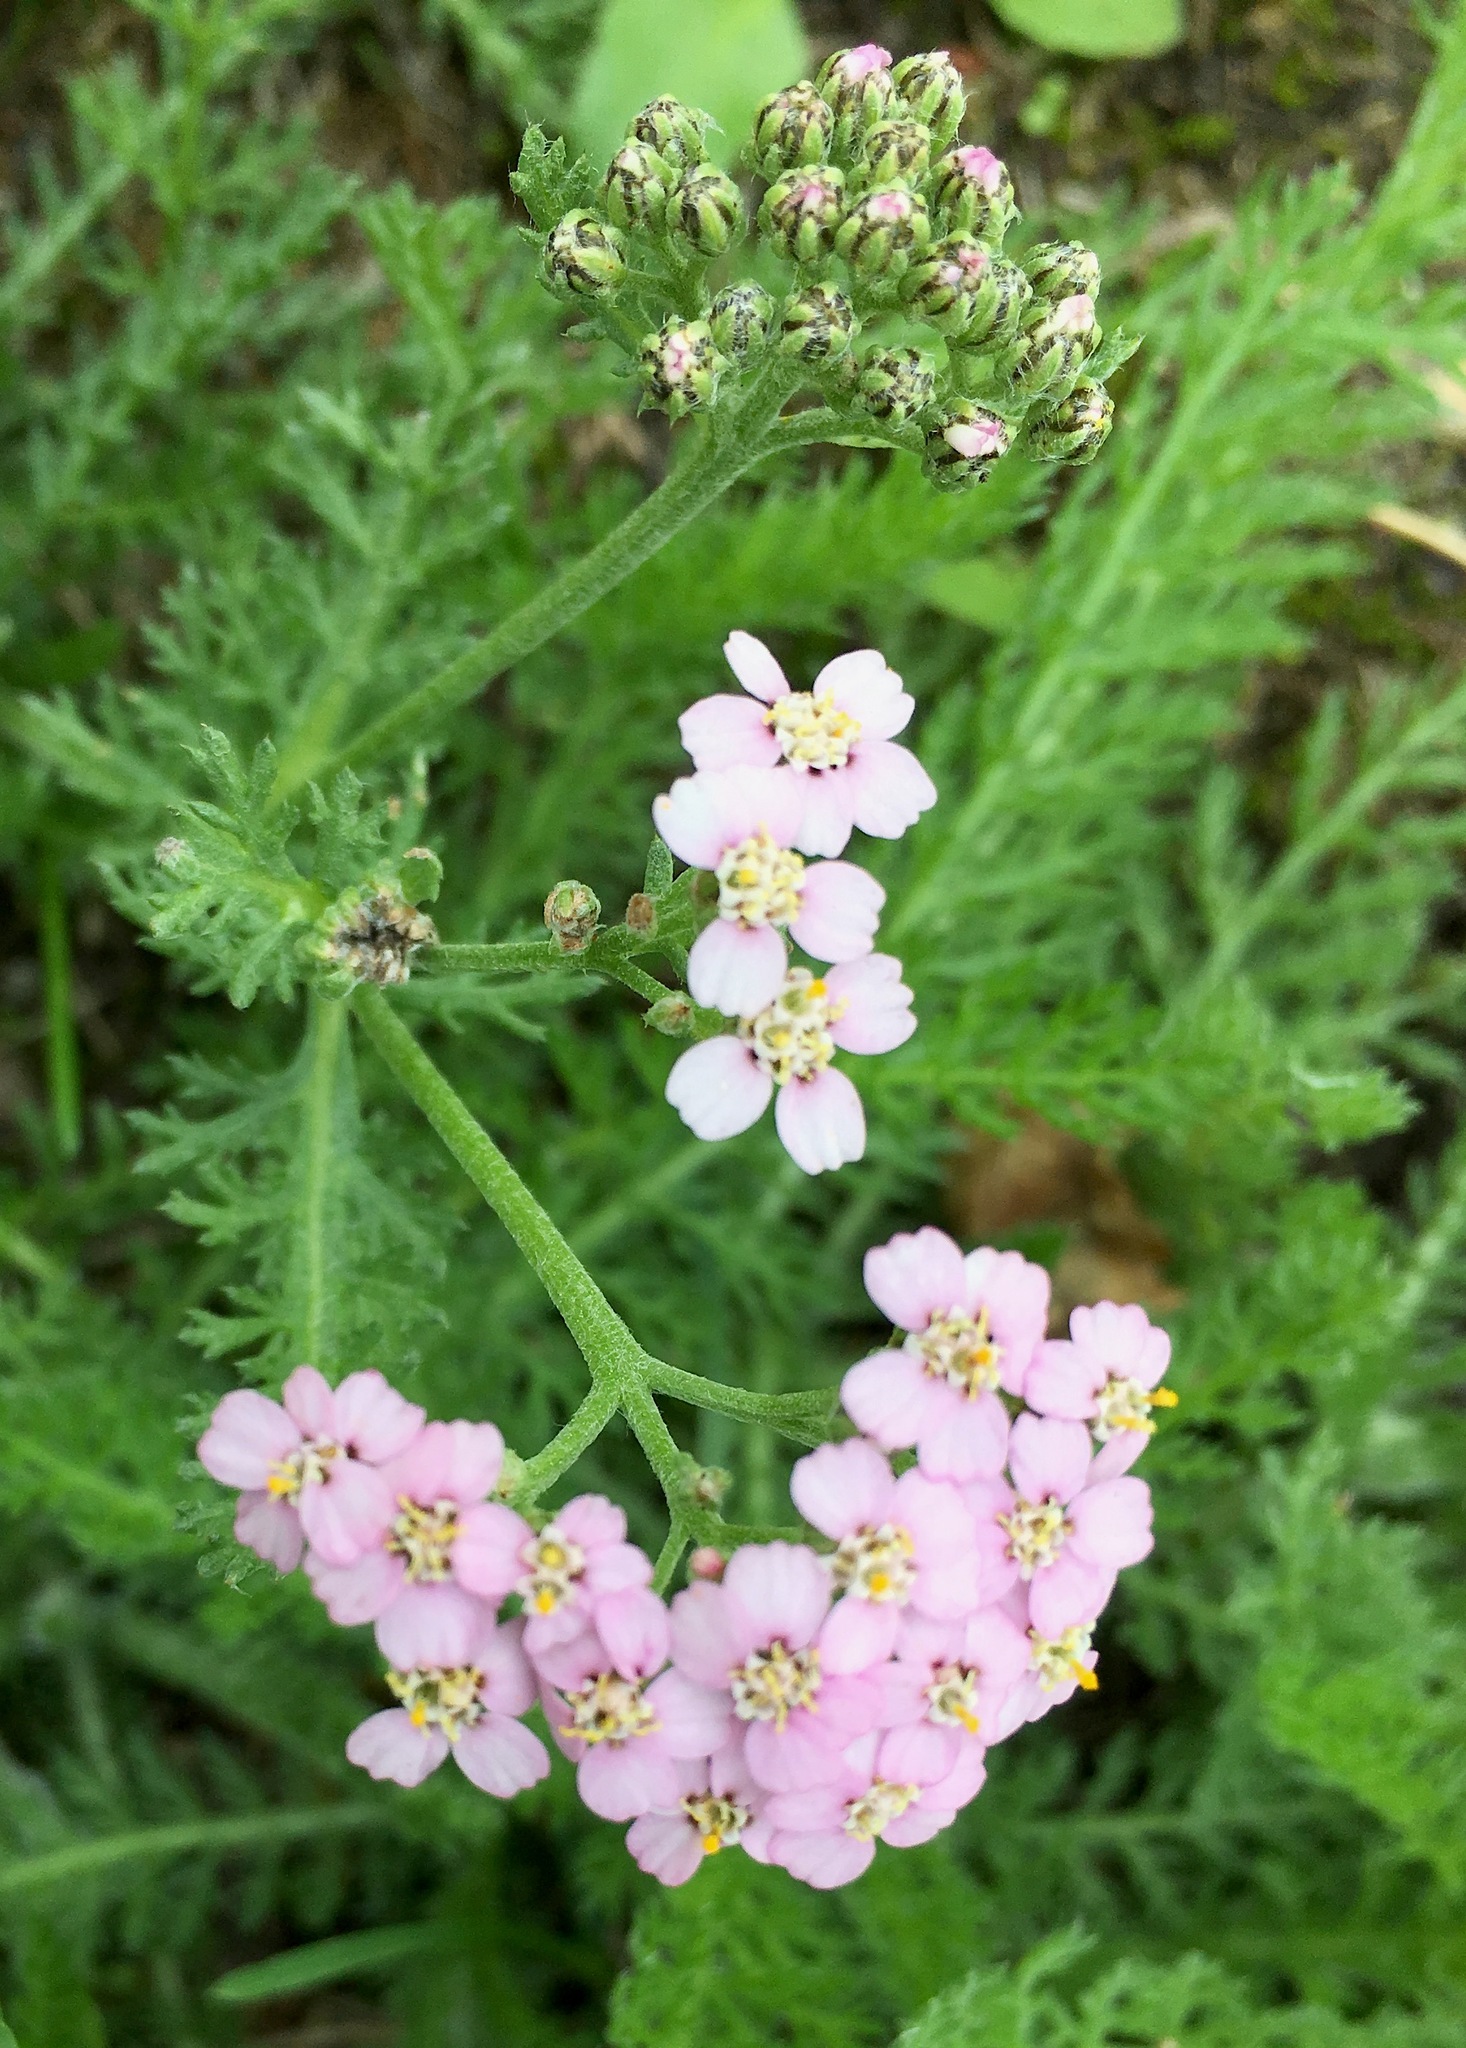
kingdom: Plantae
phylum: Tracheophyta
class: Magnoliopsida
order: Asterales
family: Asteraceae
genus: Achillea
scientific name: Achillea millefolium
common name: Yarrow
